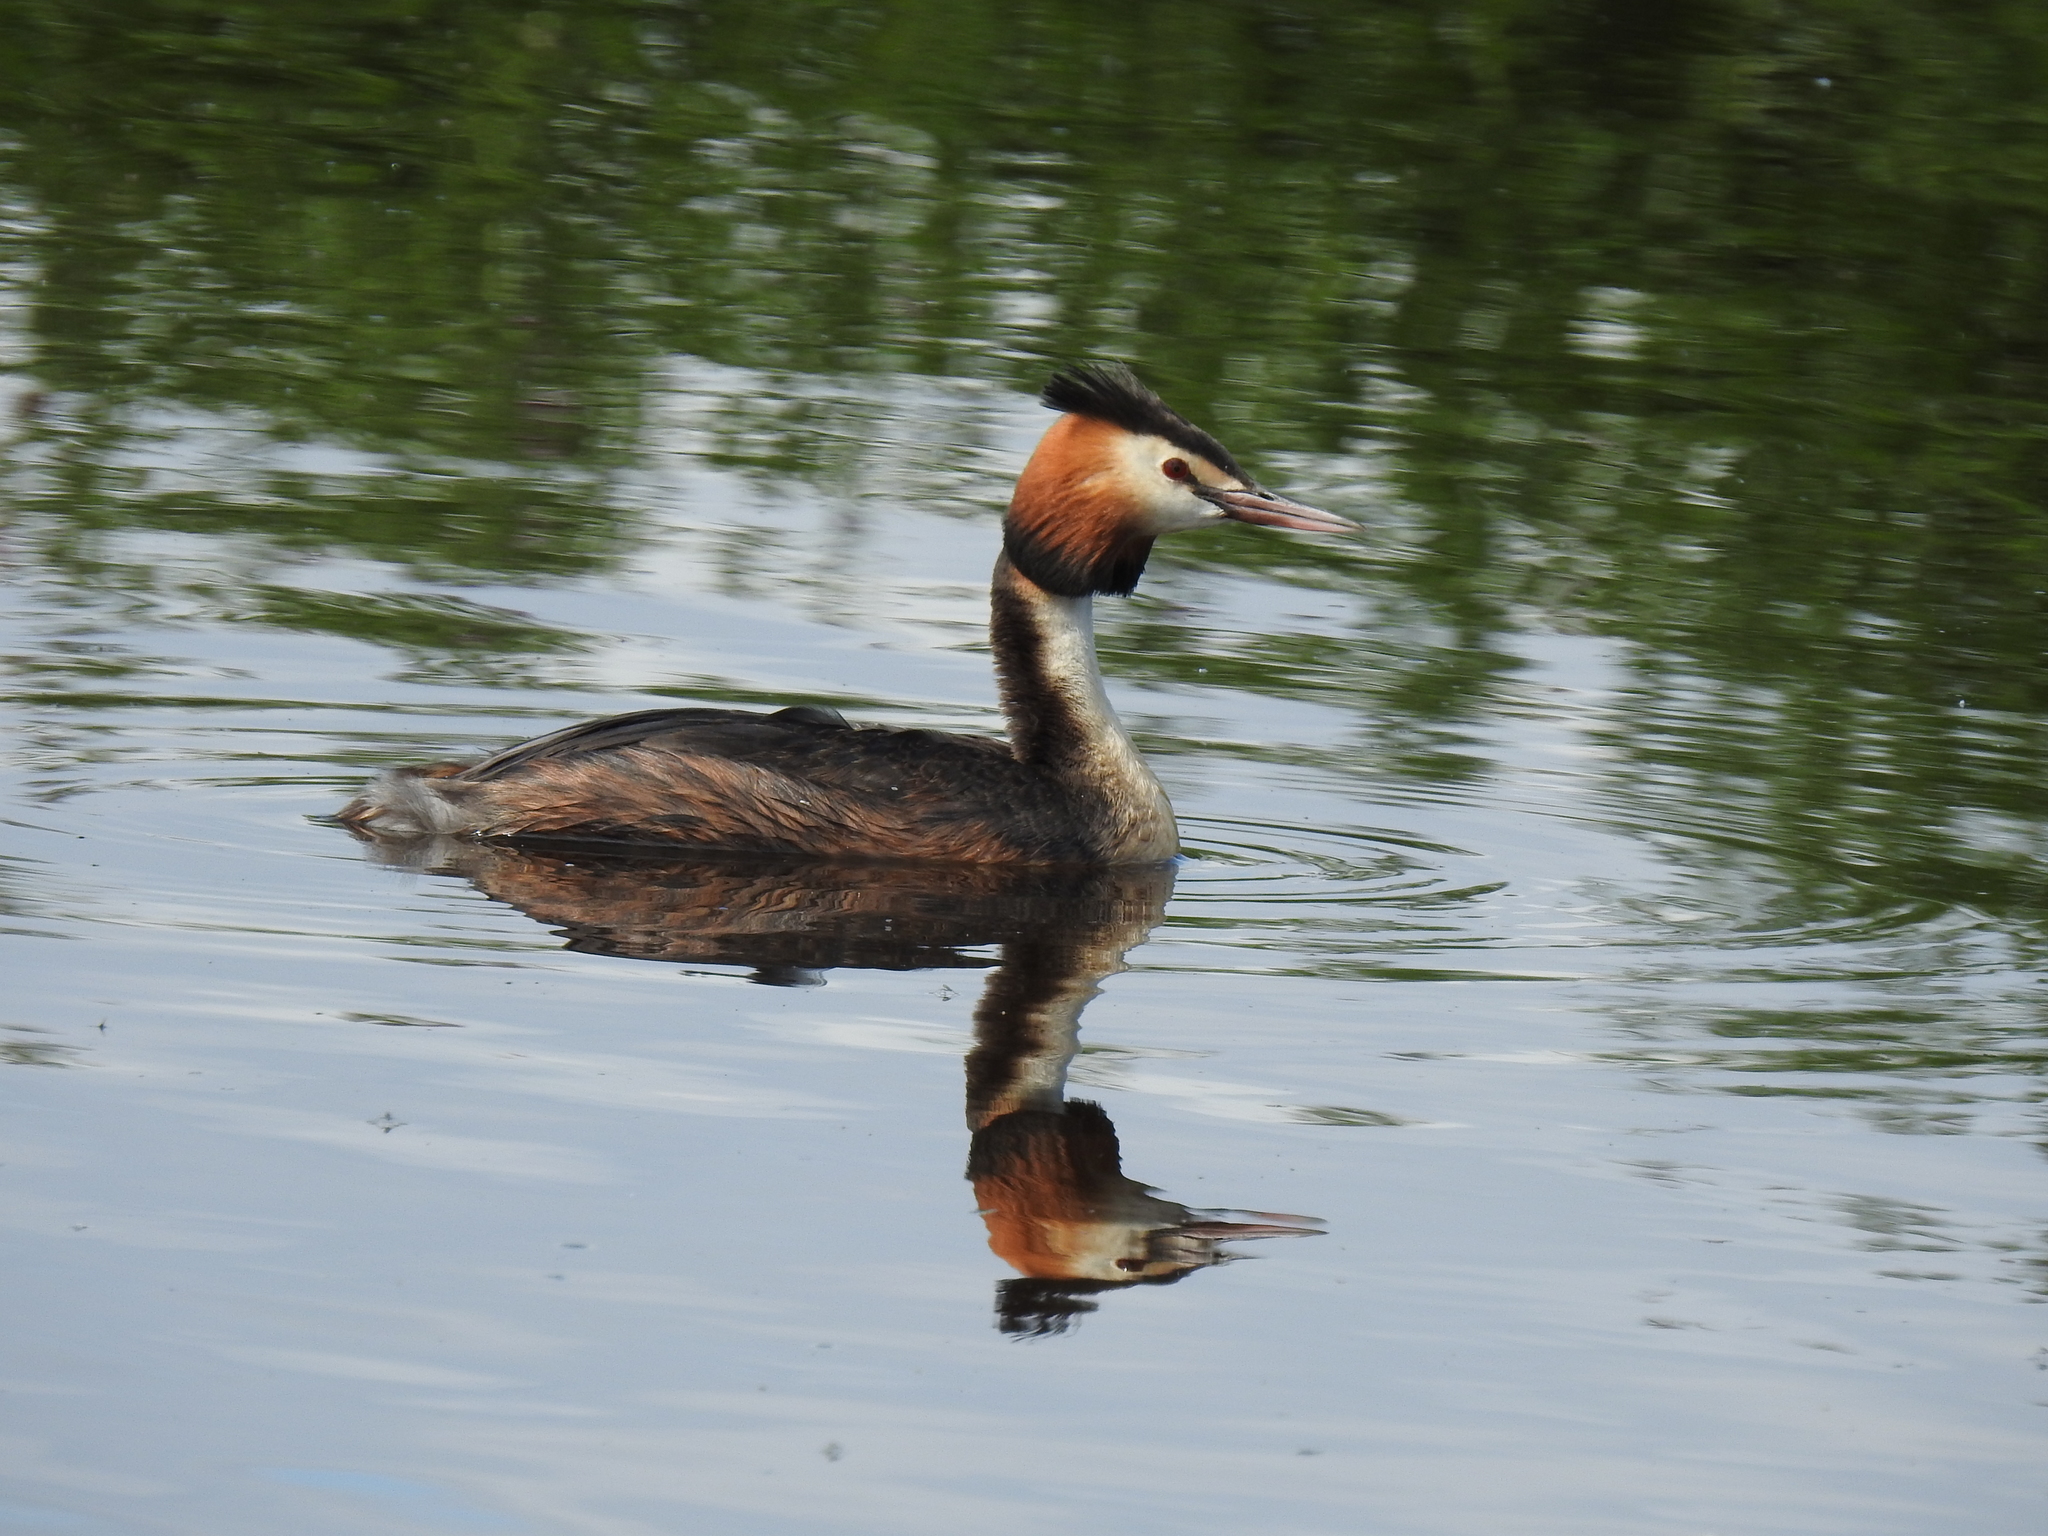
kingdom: Animalia
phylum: Chordata
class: Aves
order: Podicipediformes
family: Podicipedidae
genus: Podiceps
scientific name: Podiceps cristatus
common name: Great crested grebe
